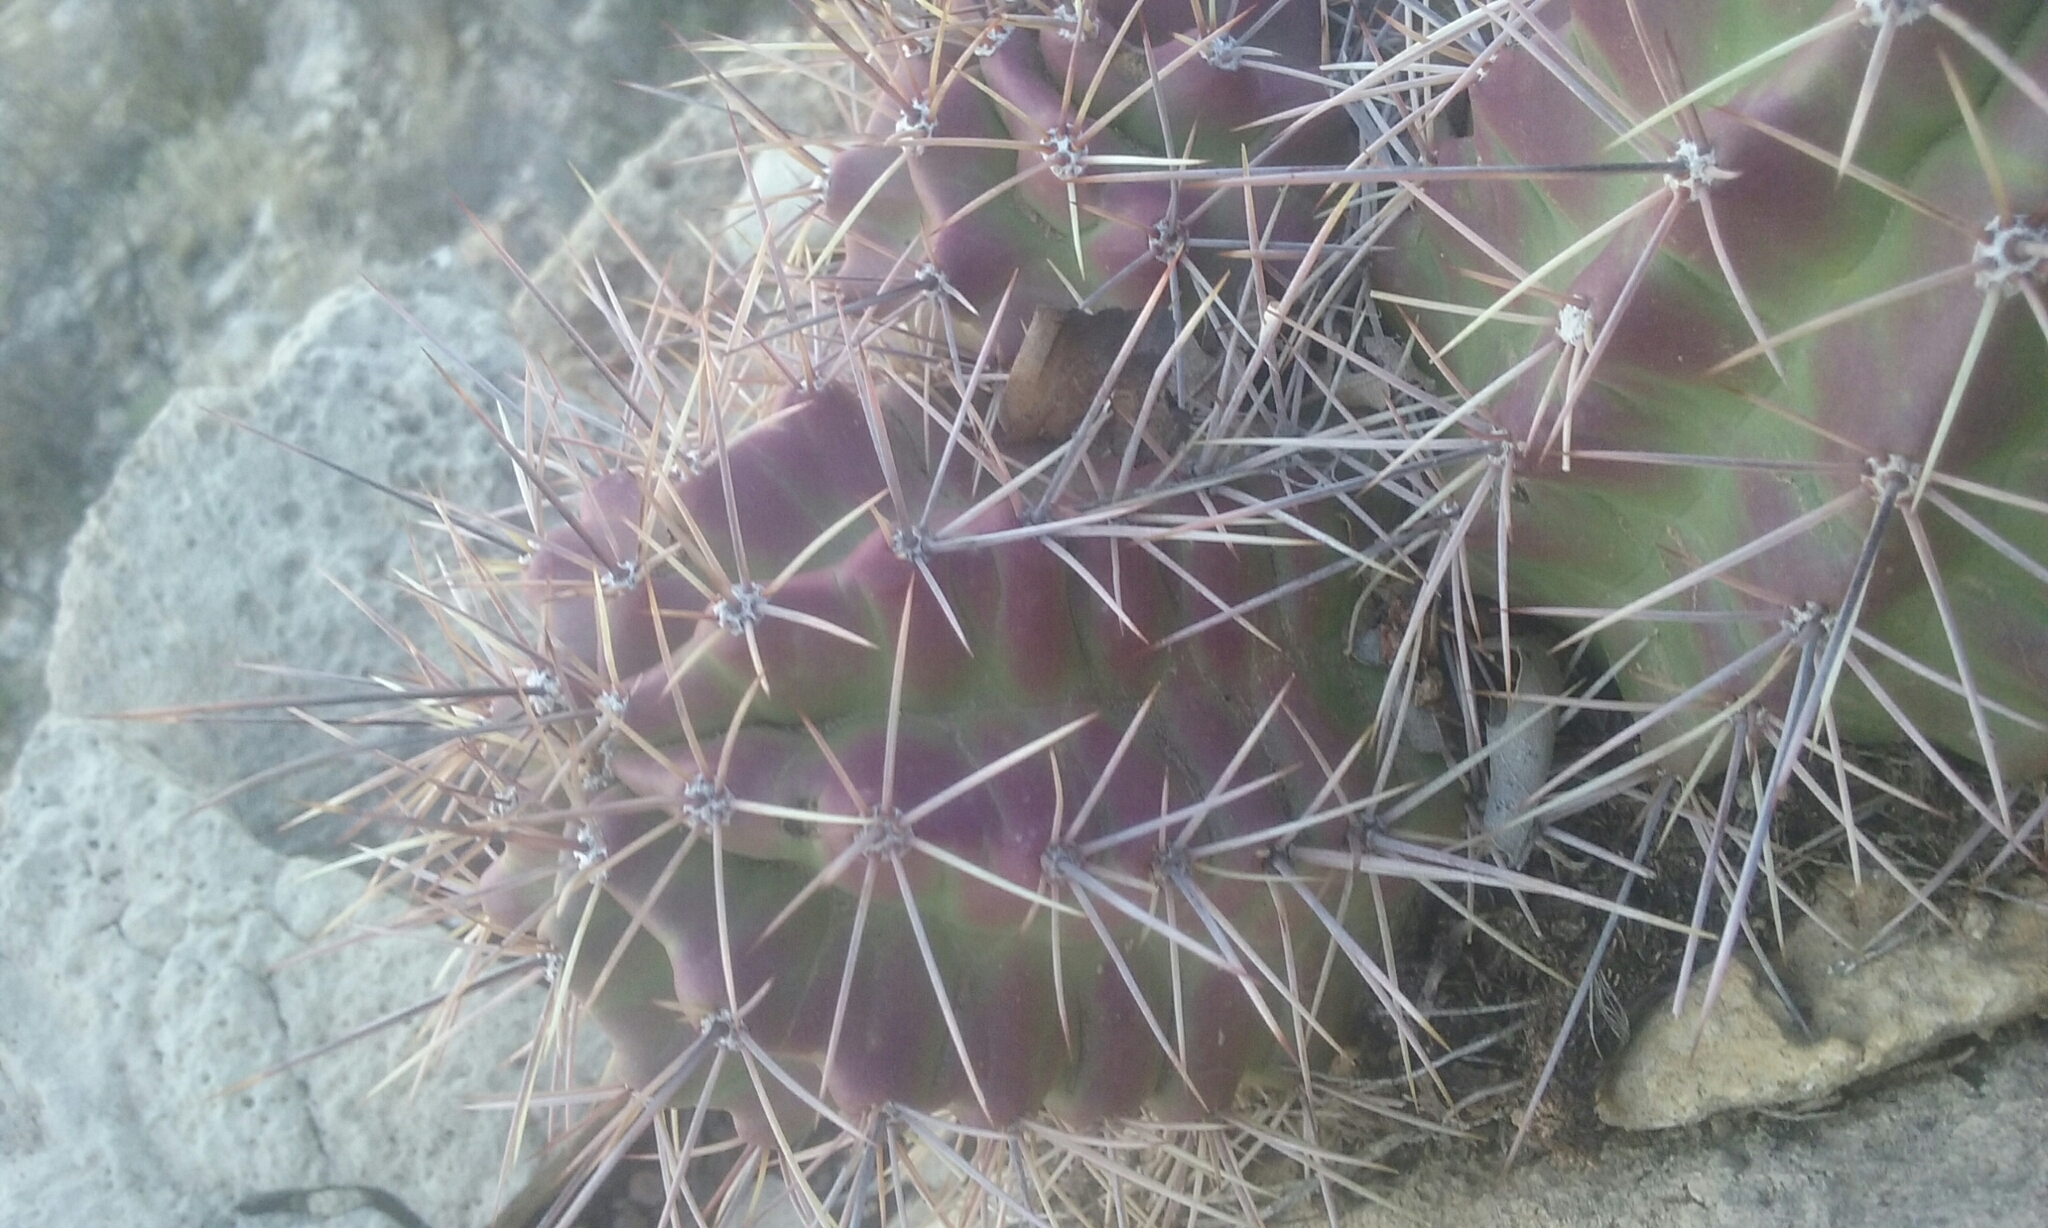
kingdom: Plantae
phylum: Tracheophyta
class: Magnoliopsida
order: Caryophyllales
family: Cactaceae
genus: Echinocereus
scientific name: Echinocereus coccineus
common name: Scarlet hedgehog cactus
